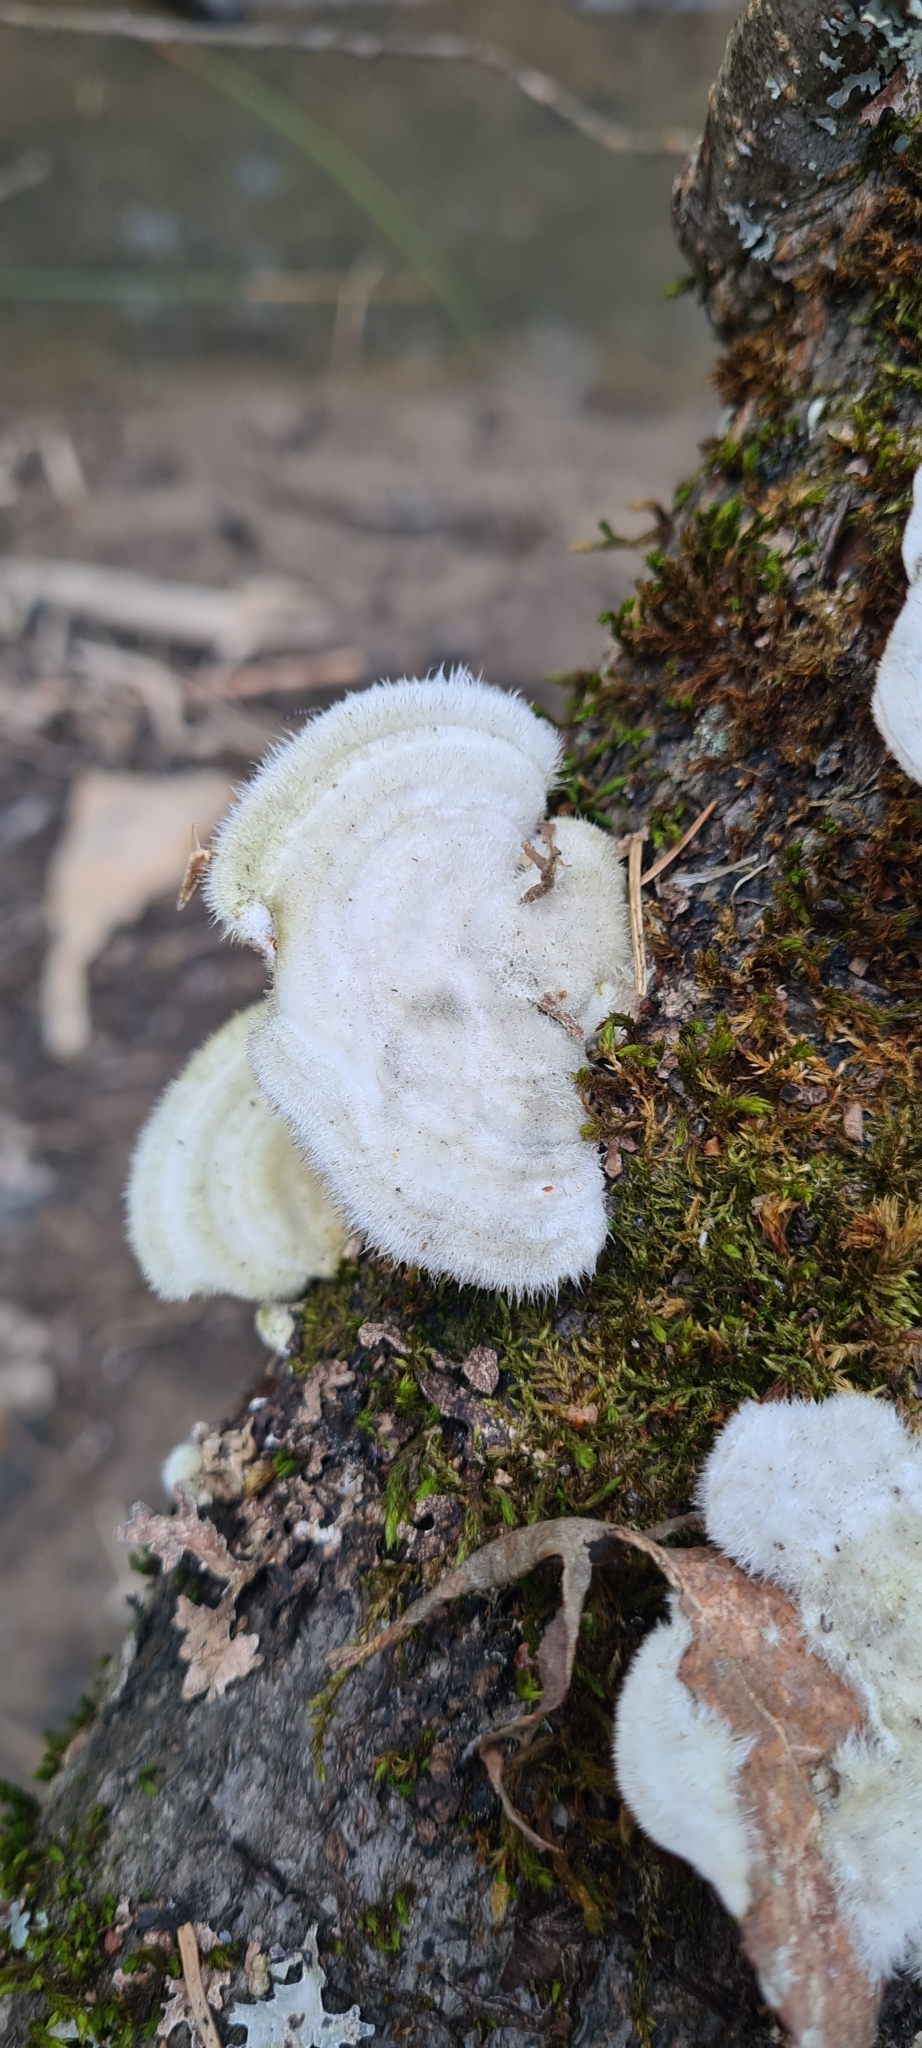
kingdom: Fungi
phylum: Basidiomycota
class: Agaricomycetes
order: Polyporales
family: Polyporaceae
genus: Trametes
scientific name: Trametes hirsuta
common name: Hairy bracket
